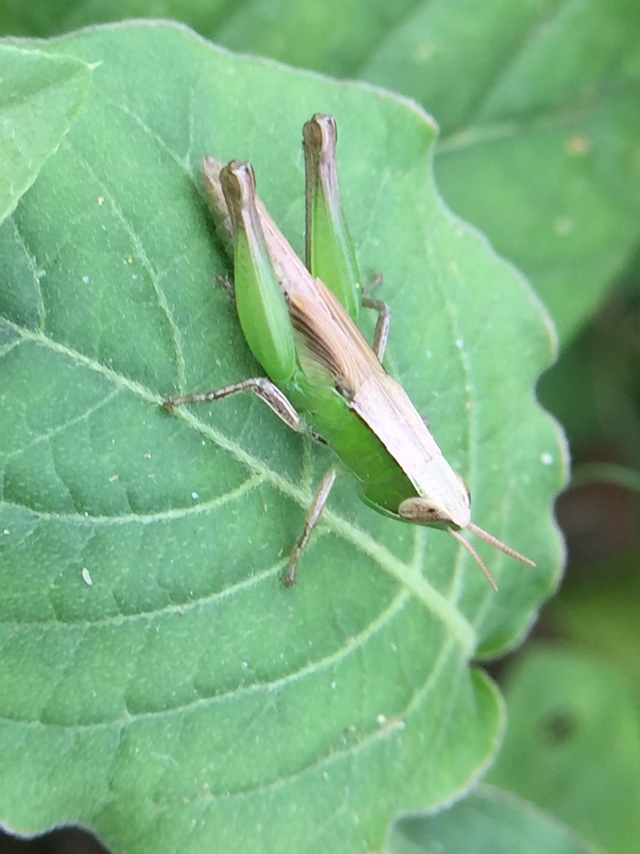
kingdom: Animalia
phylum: Arthropoda
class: Insecta
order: Orthoptera
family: Acrididae
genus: Spathosternum
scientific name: Spathosternum prasiniferum
